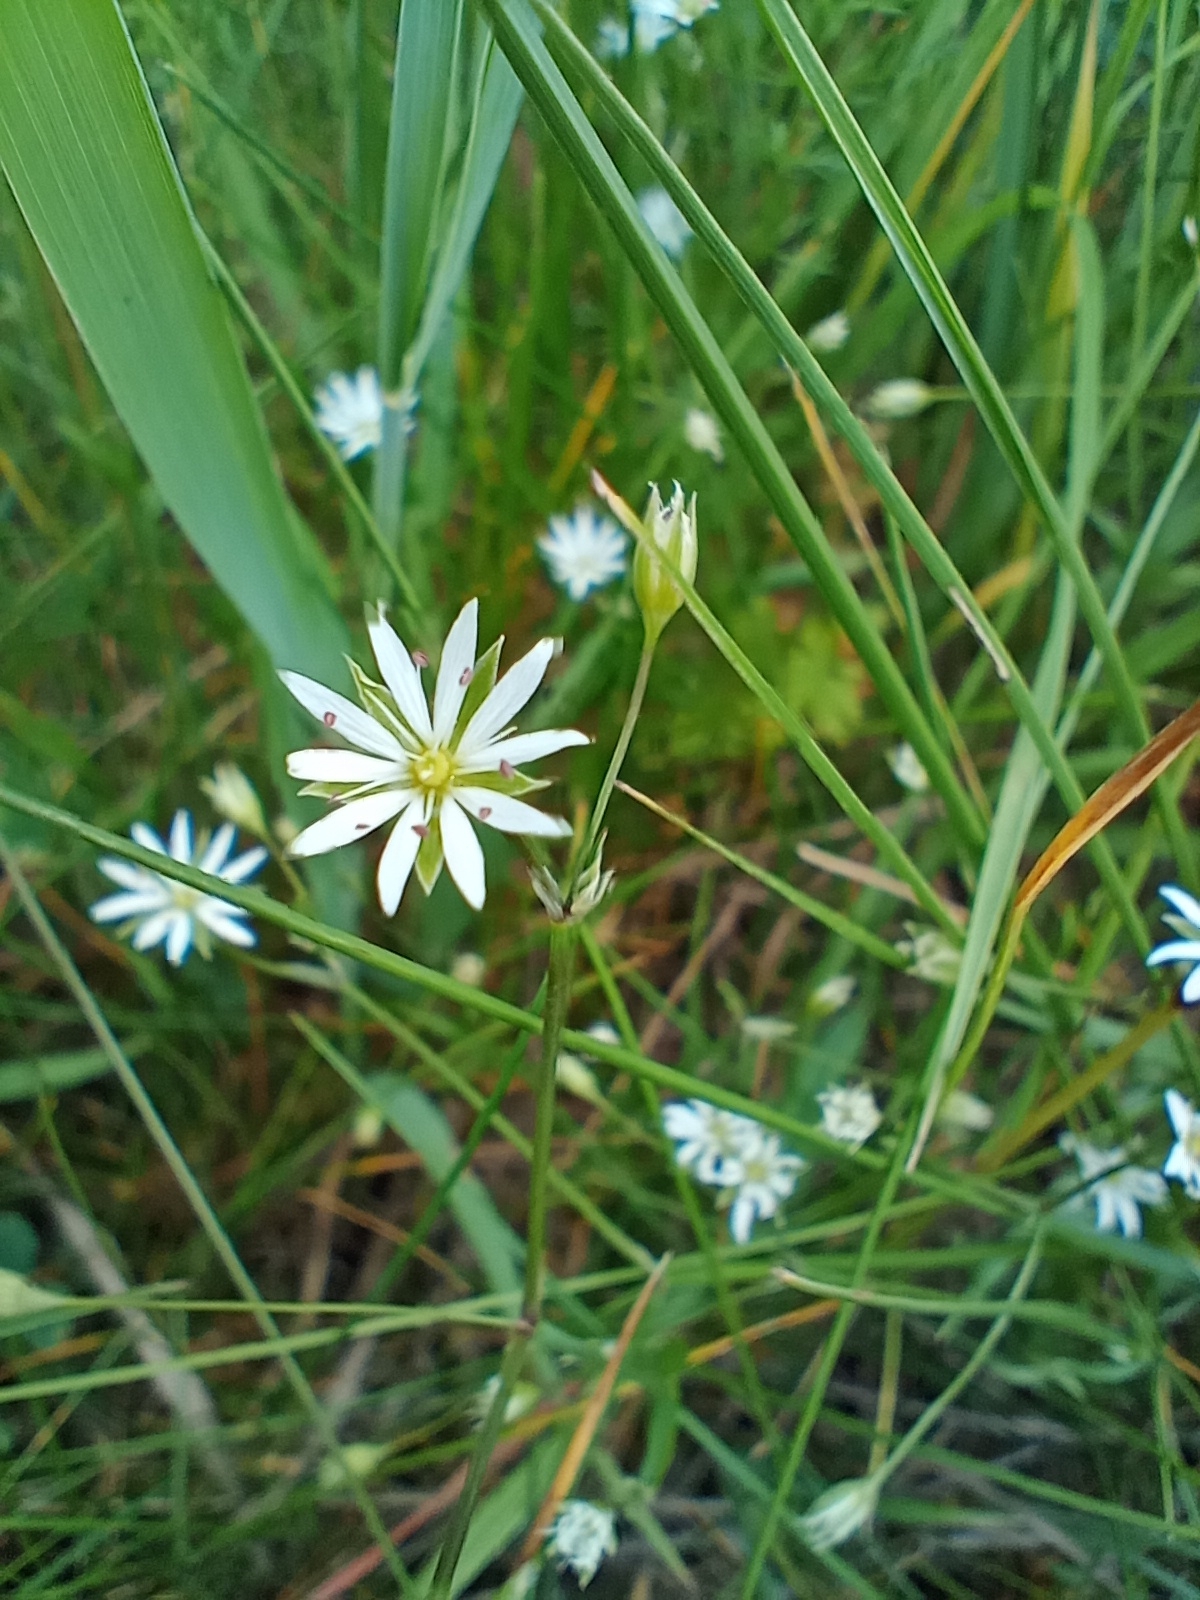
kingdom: Plantae
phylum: Tracheophyta
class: Magnoliopsida
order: Caryophyllales
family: Caryophyllaceae
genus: Stellaria
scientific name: Stellaria graminea
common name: Grass-like starwort
